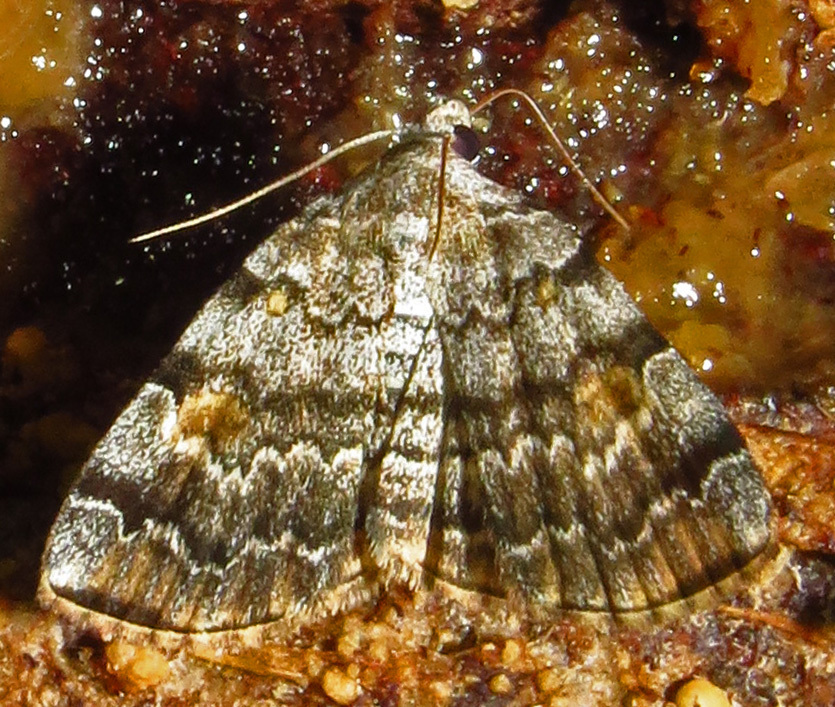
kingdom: Animalia
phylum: Arthropoda
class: Insecta
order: Lepidoptera
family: Erebidae
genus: Idia
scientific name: Idia americalis
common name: American idia moth
